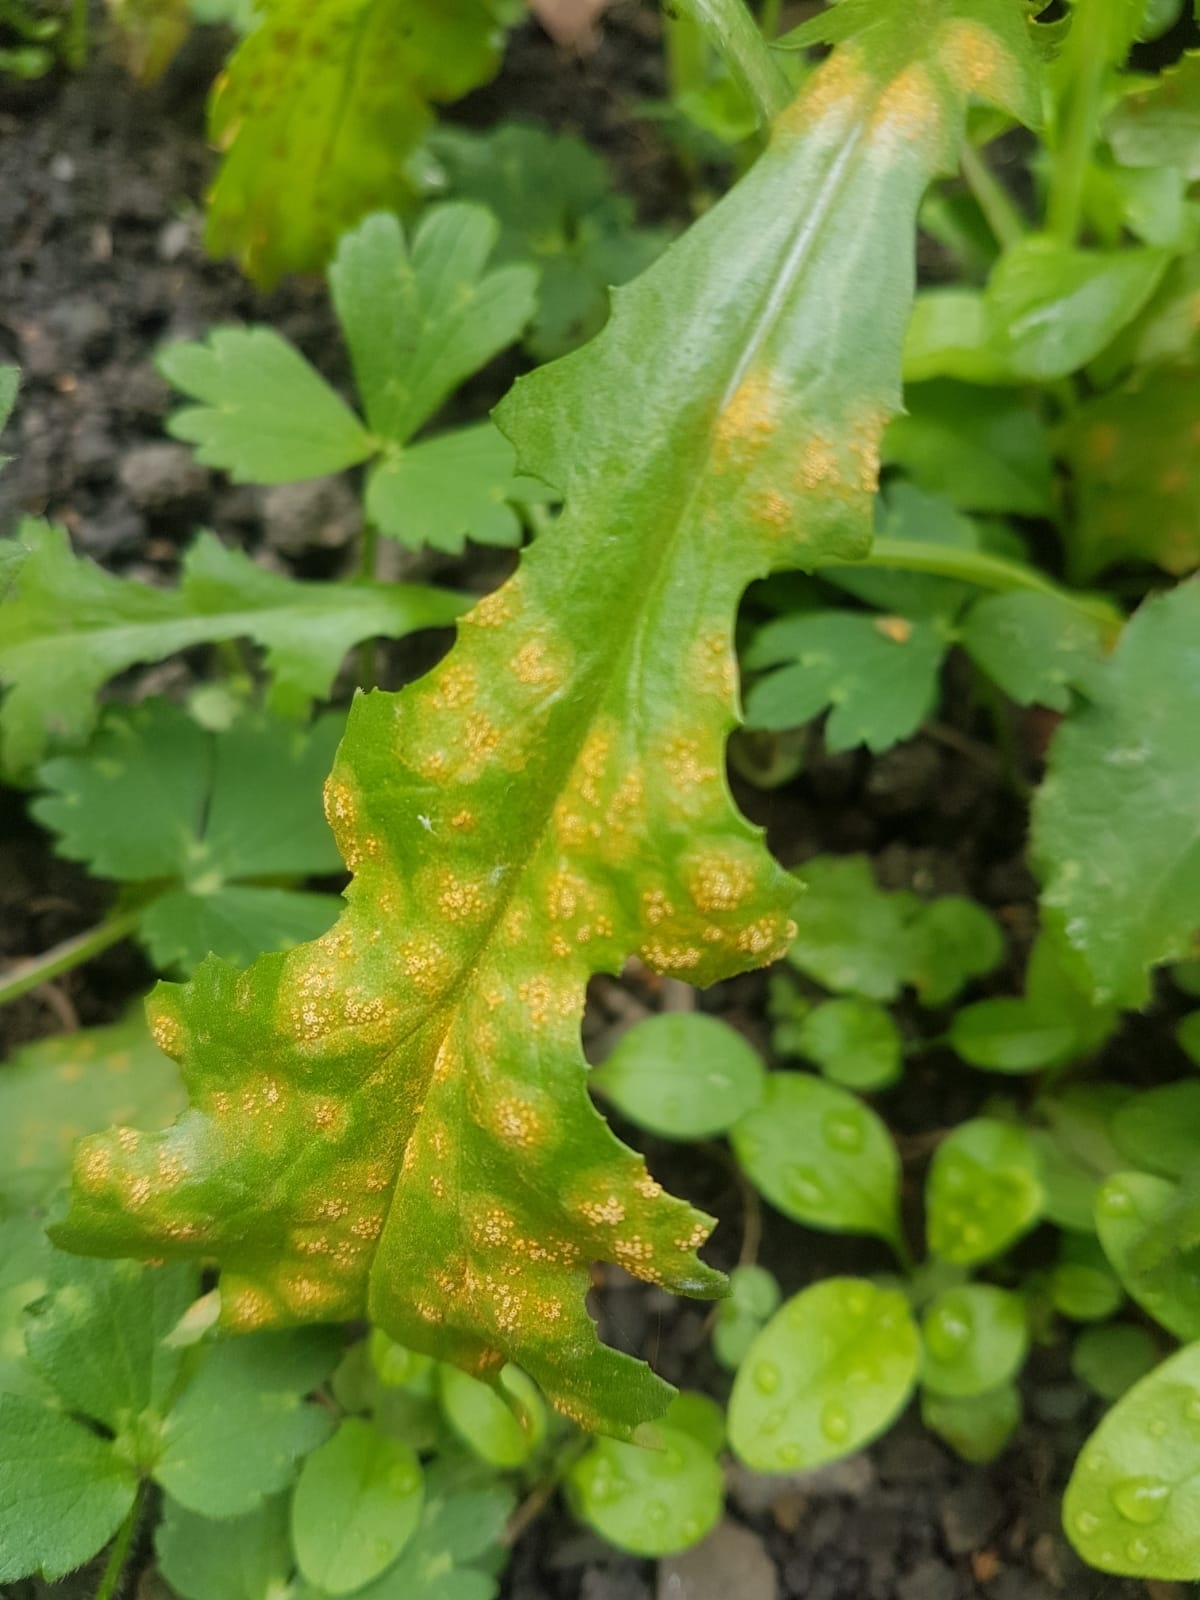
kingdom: Fungi
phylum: Basidiomycota
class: Pucciniomycetes
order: Pucciniales
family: Pucciniaceae
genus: Puccinia
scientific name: Puccinia lagenophorae
